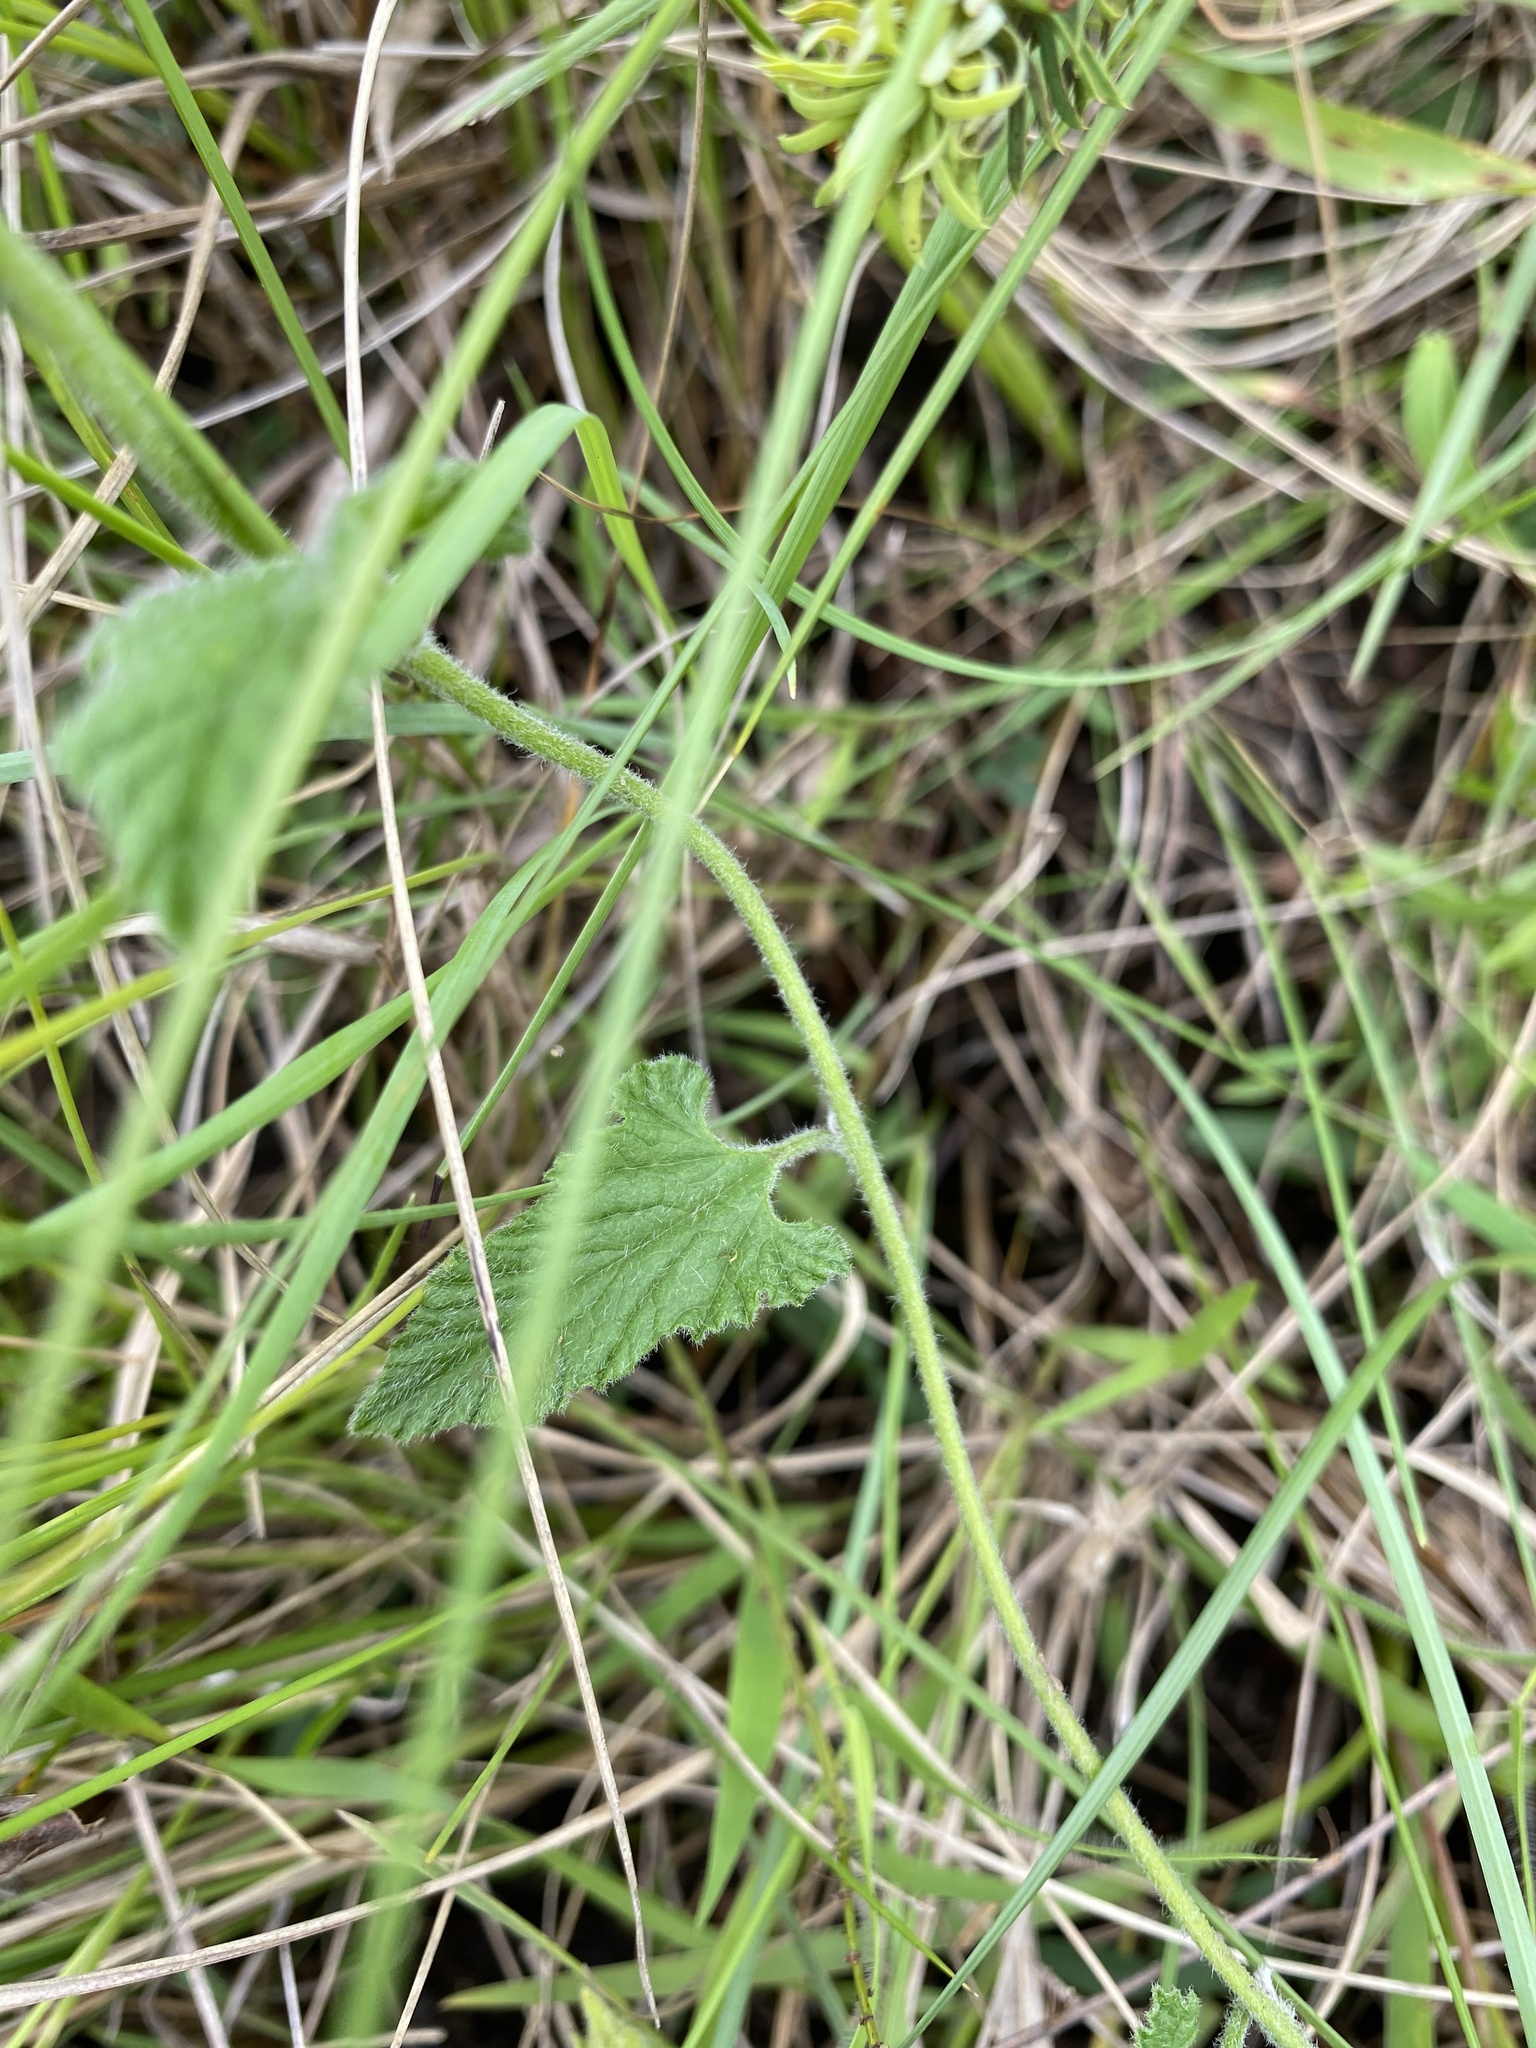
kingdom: Plantae
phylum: Tracheophyta
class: Magnoliopsida
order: Solanales
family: Convolvulaceae
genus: Convolvulus
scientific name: Convolvulus natalensis
